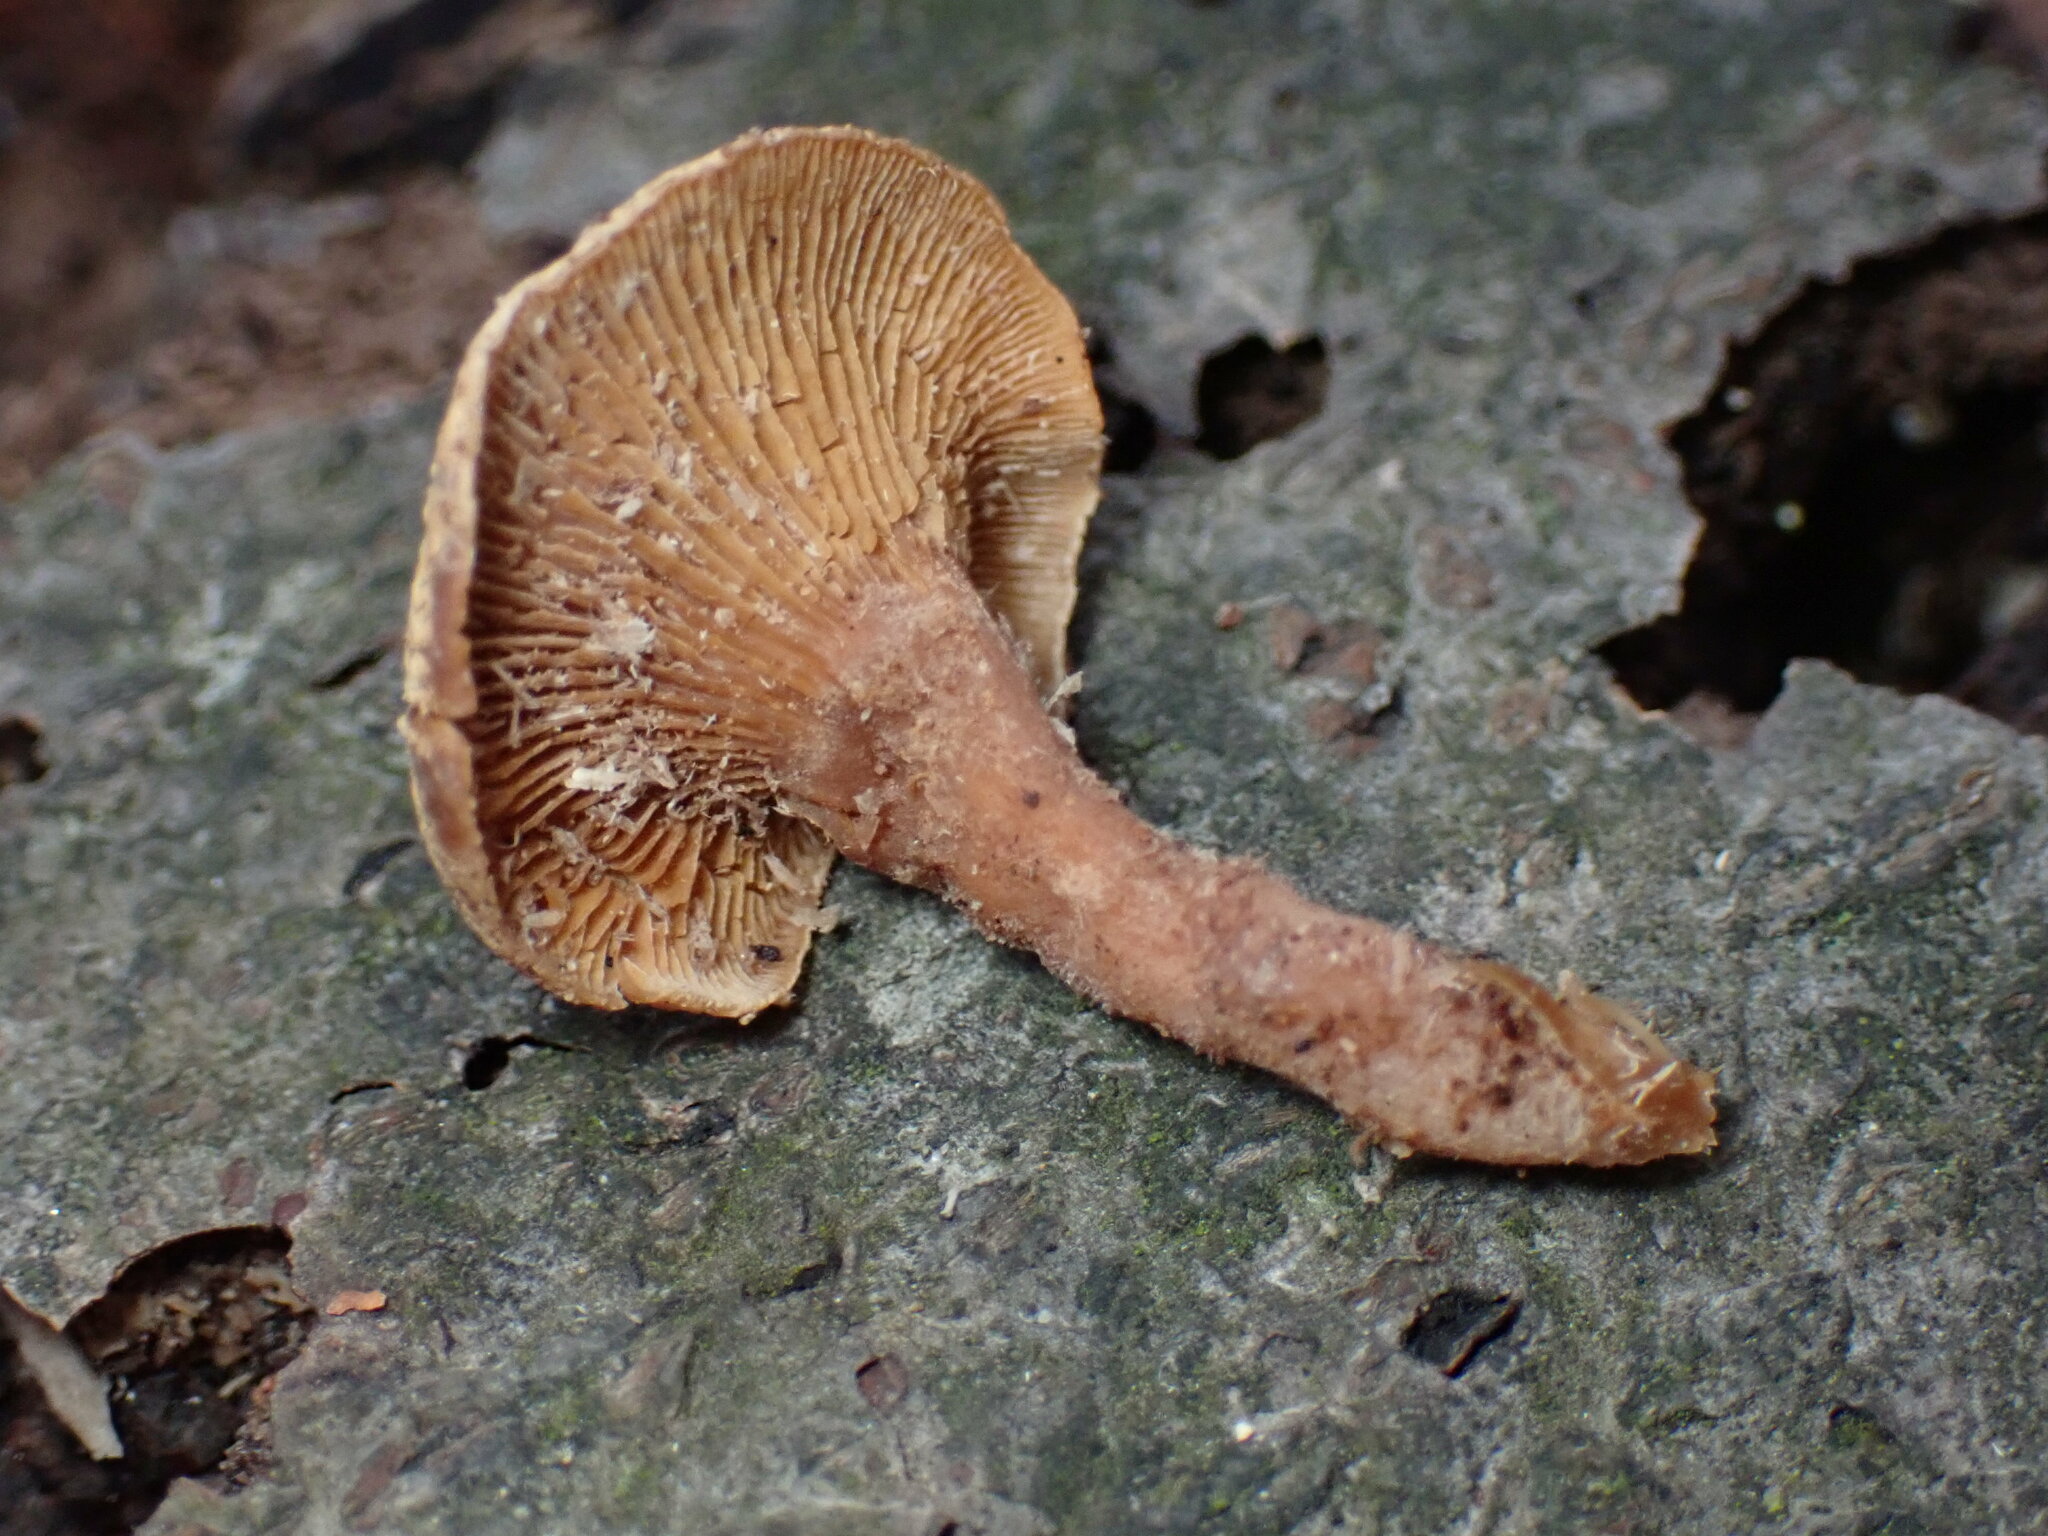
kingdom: Fungi
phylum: Basidiomycota
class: Agaricomycetes
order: Agaricales
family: Mycenaceae
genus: Panellus
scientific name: Panellus stipticus
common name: Bitter oysterling
